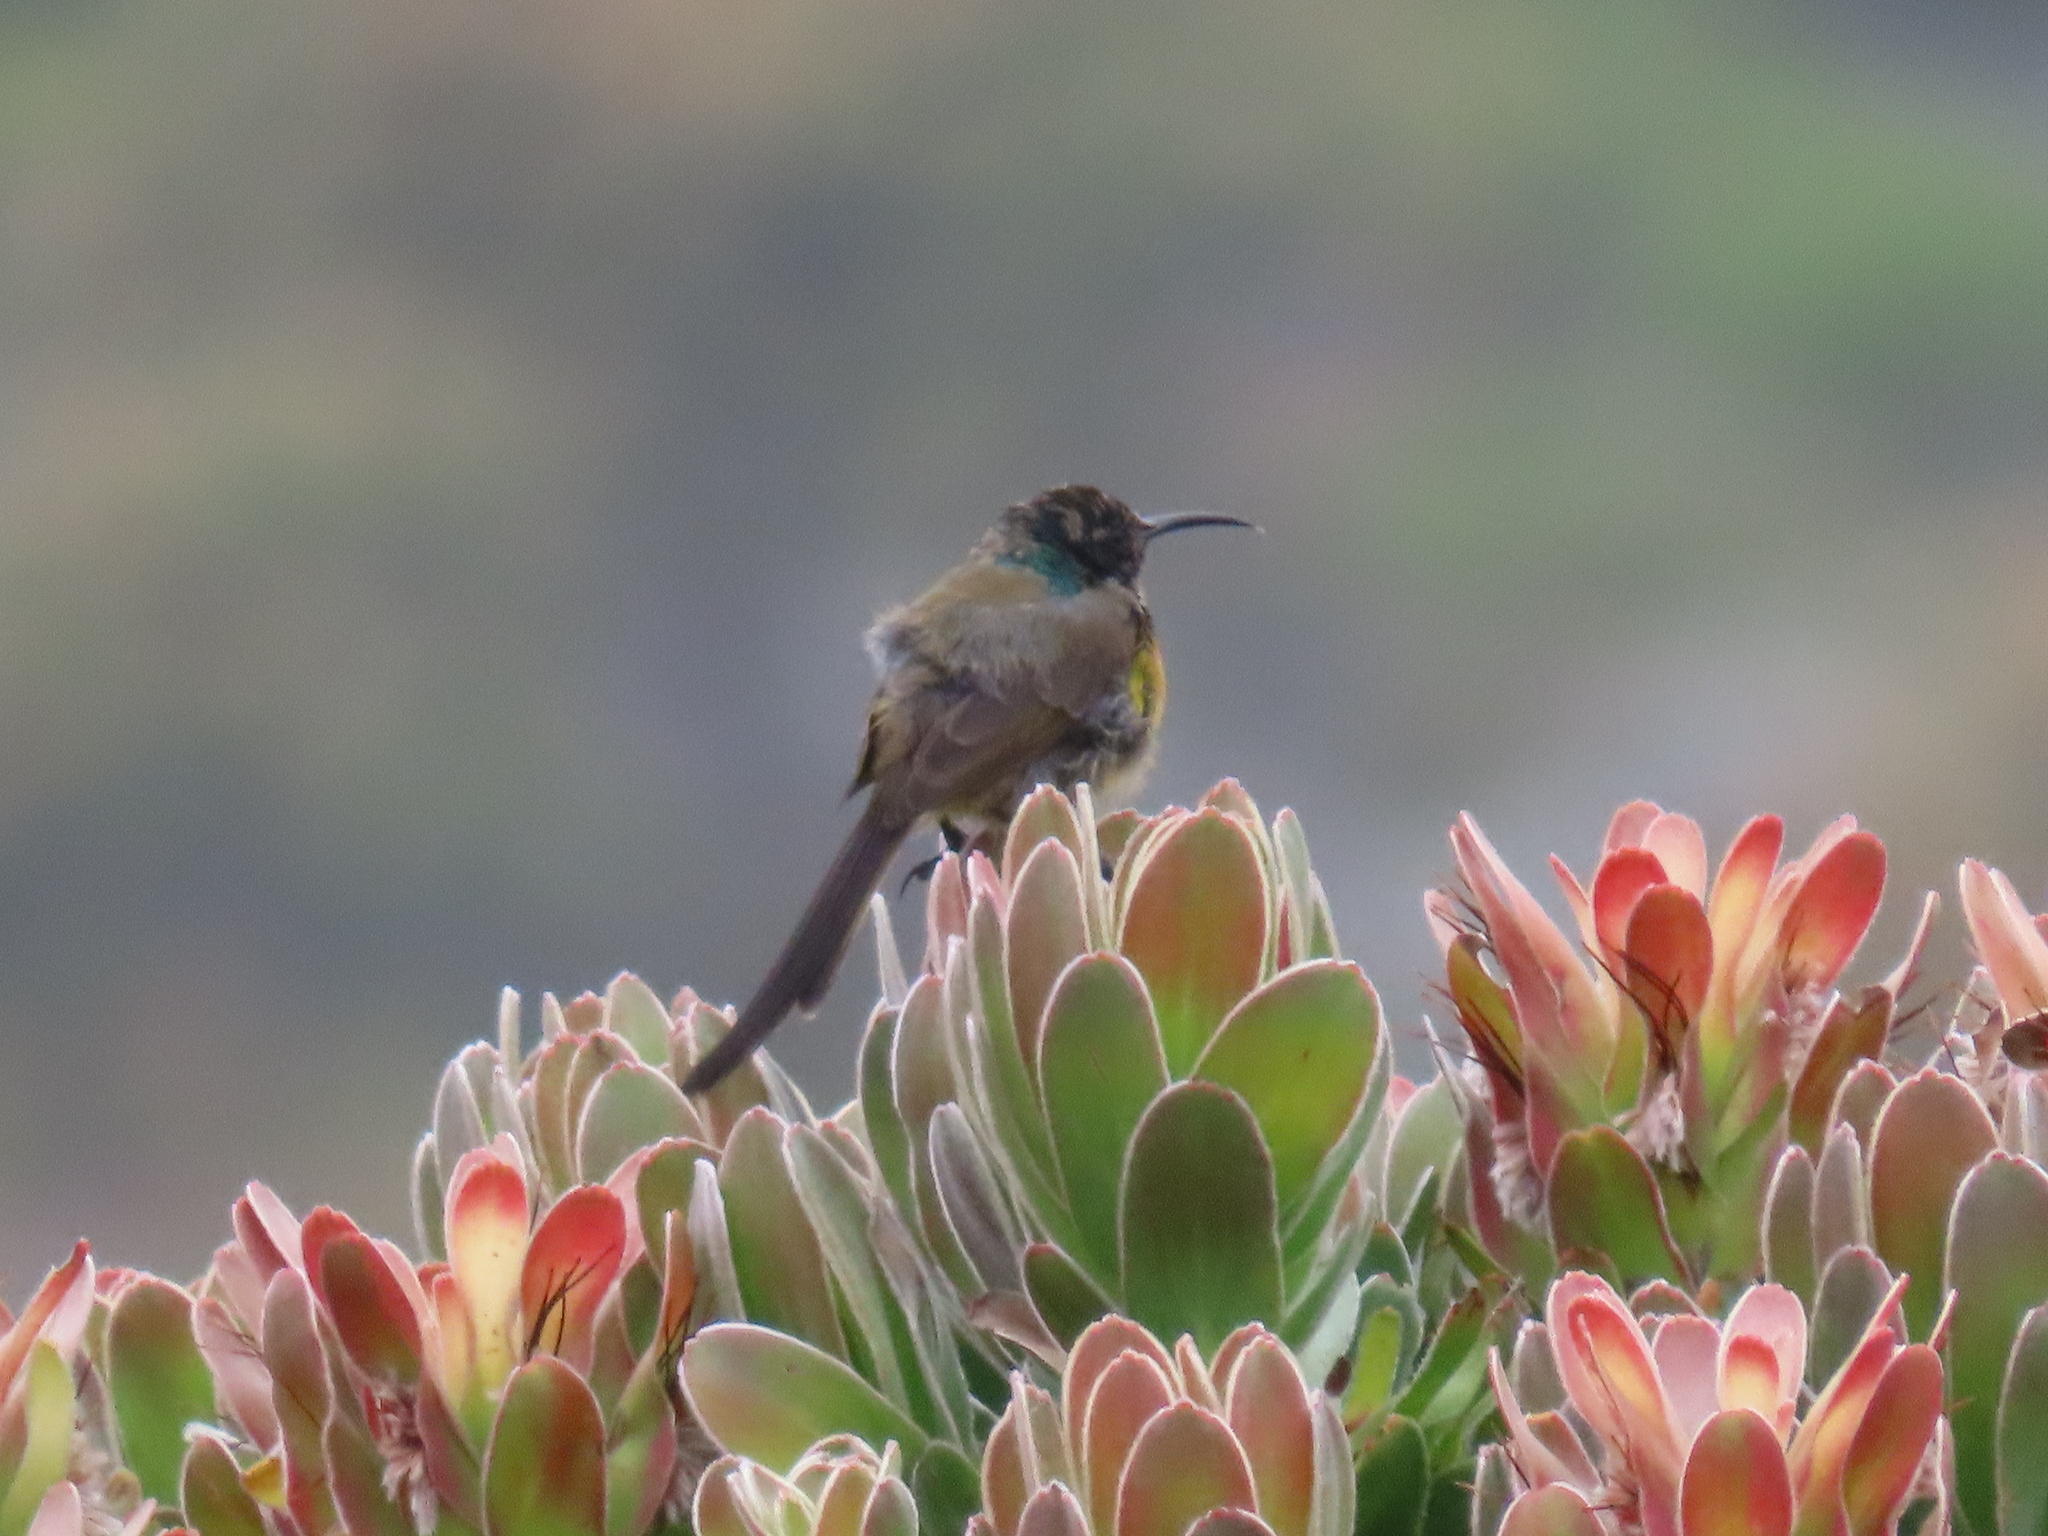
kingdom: Animalia
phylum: Chordata
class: Aves
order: Passeriformes
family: Nectariniidae
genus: Anthobaphes
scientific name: Anthobaphes violacea
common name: Orange-breasted sunbird
